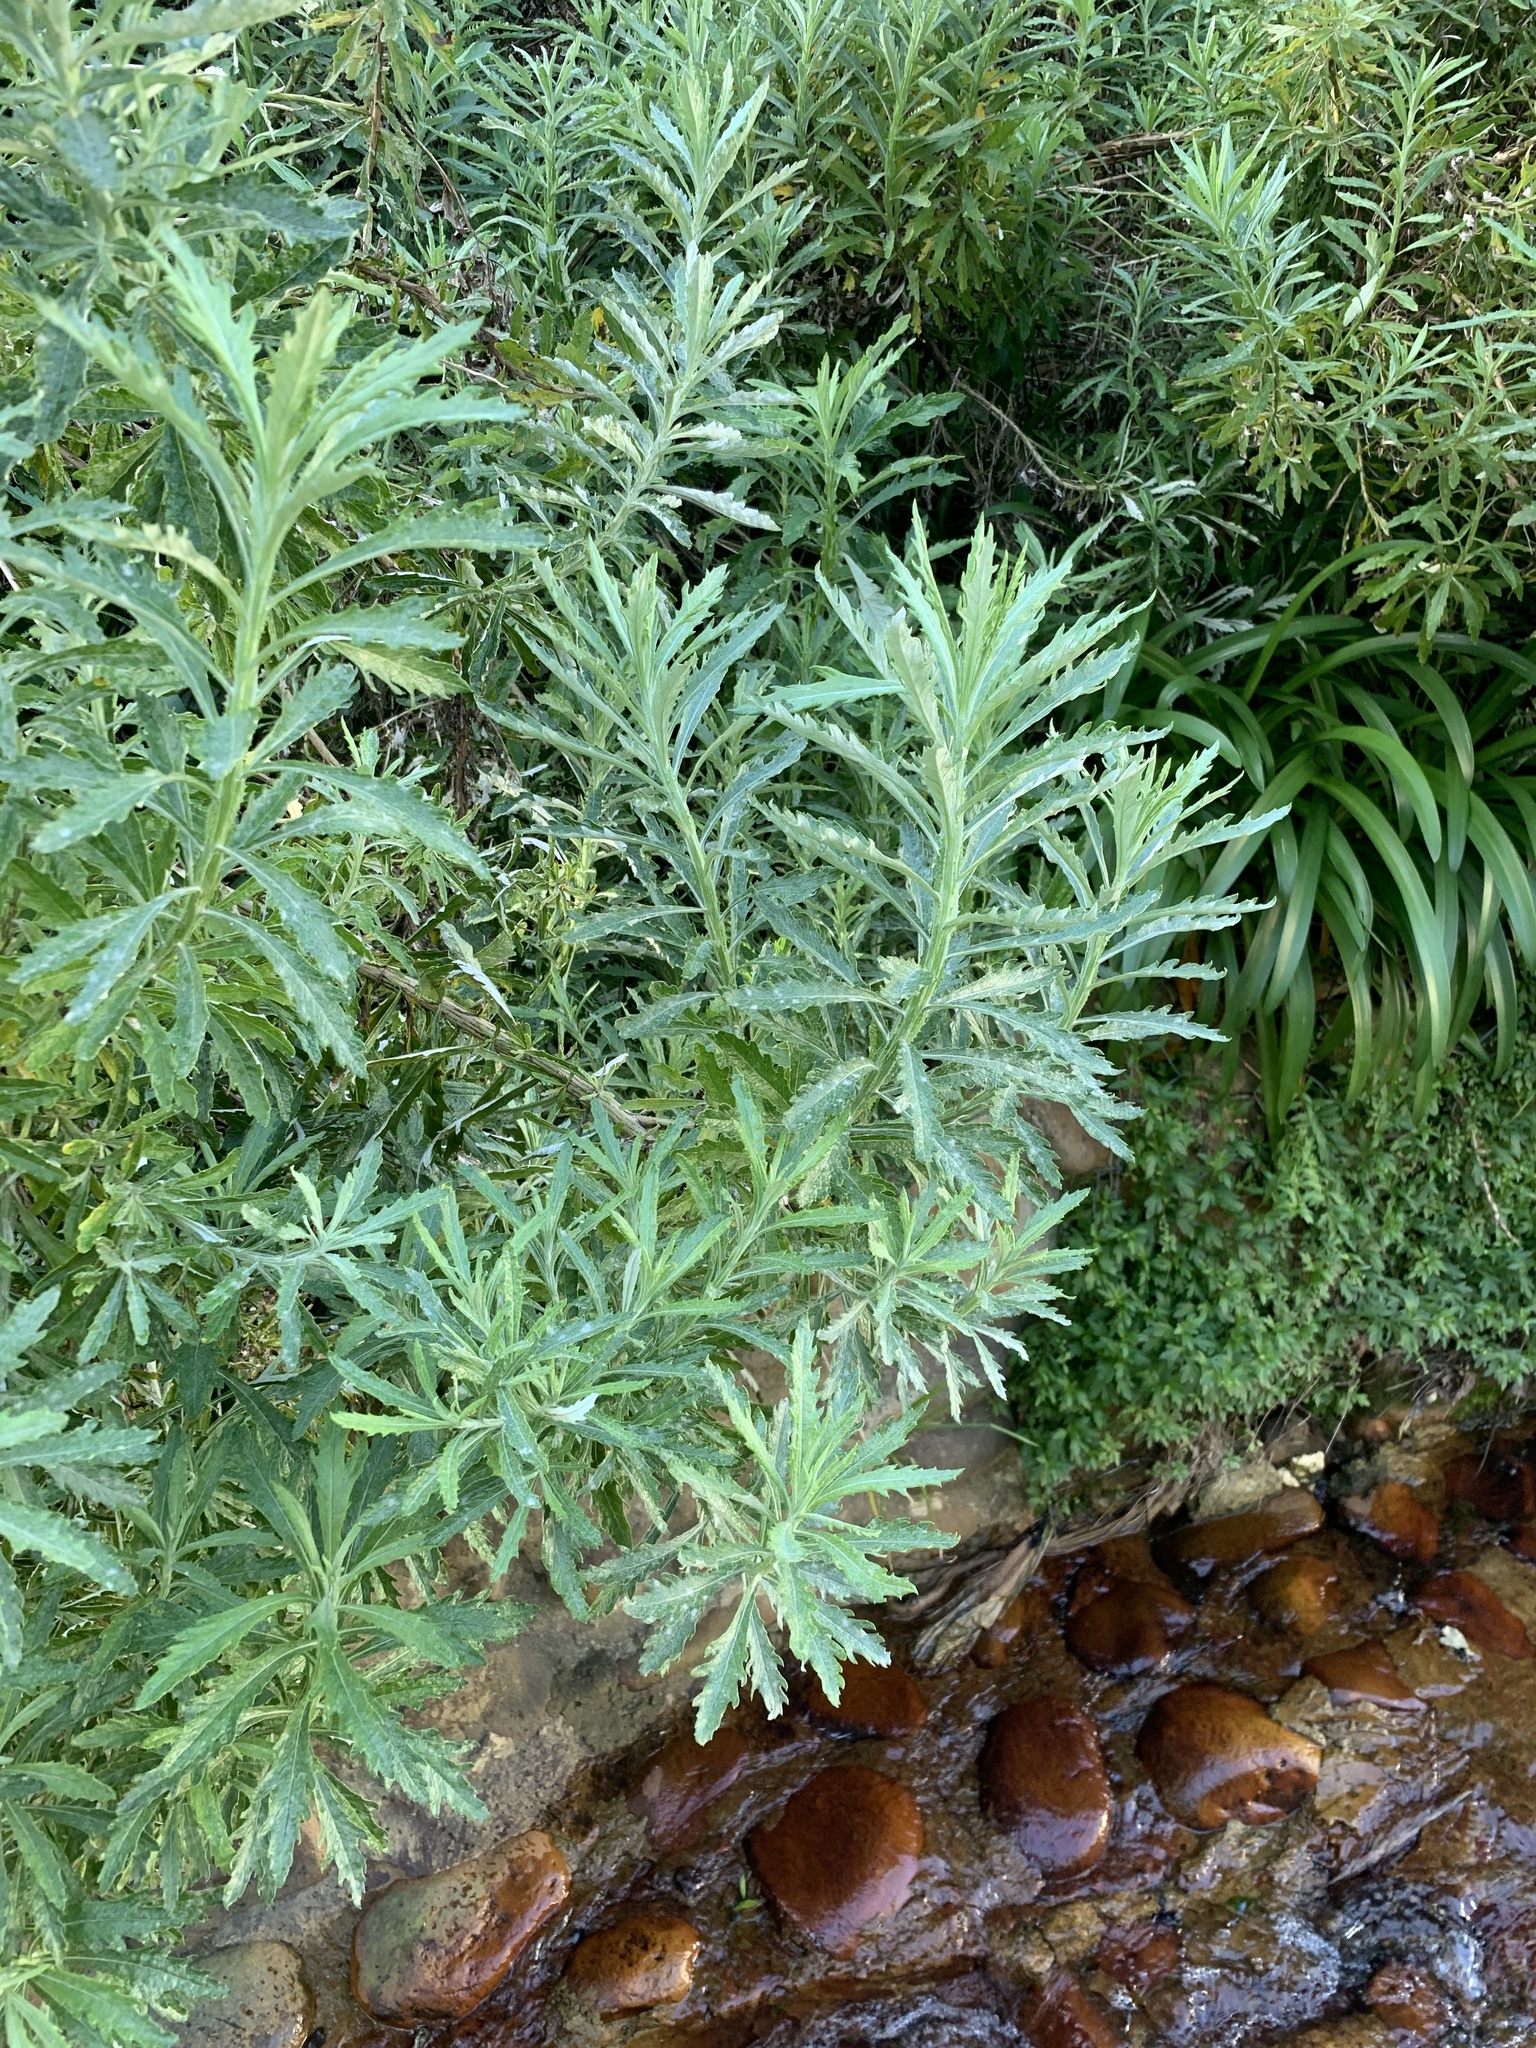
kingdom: Plantae
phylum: Tracheophyta
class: Magnoliopsida
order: Asterales
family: Asteraceae
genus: Senecio
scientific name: Senecio pterophorus
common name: Shoddy ragwort
